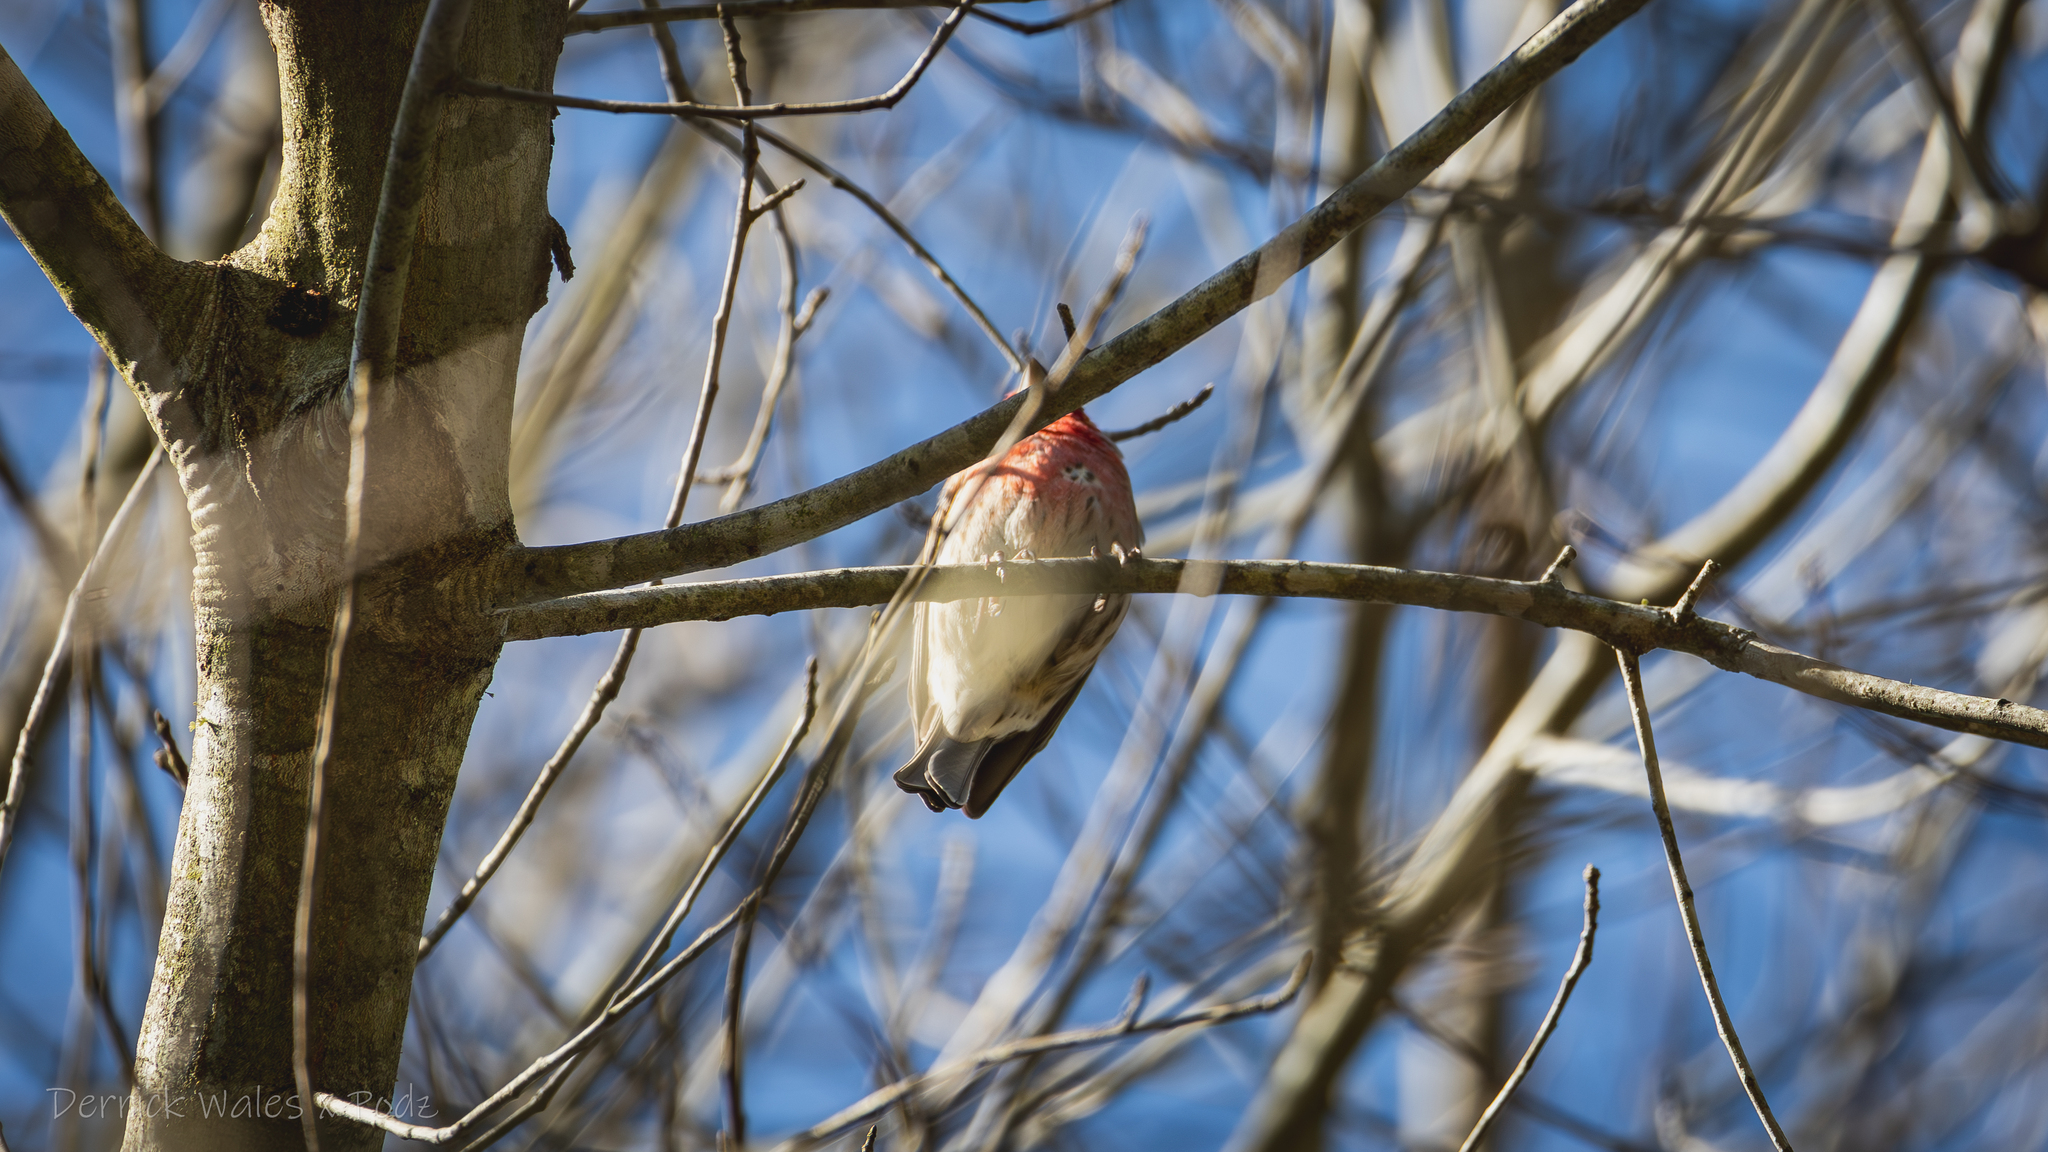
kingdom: Animalia
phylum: Chordata
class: Aves
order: Passeriformes
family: Fringillidae
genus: Haemorhous
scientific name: Haemorhous mexicanus
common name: House finch
